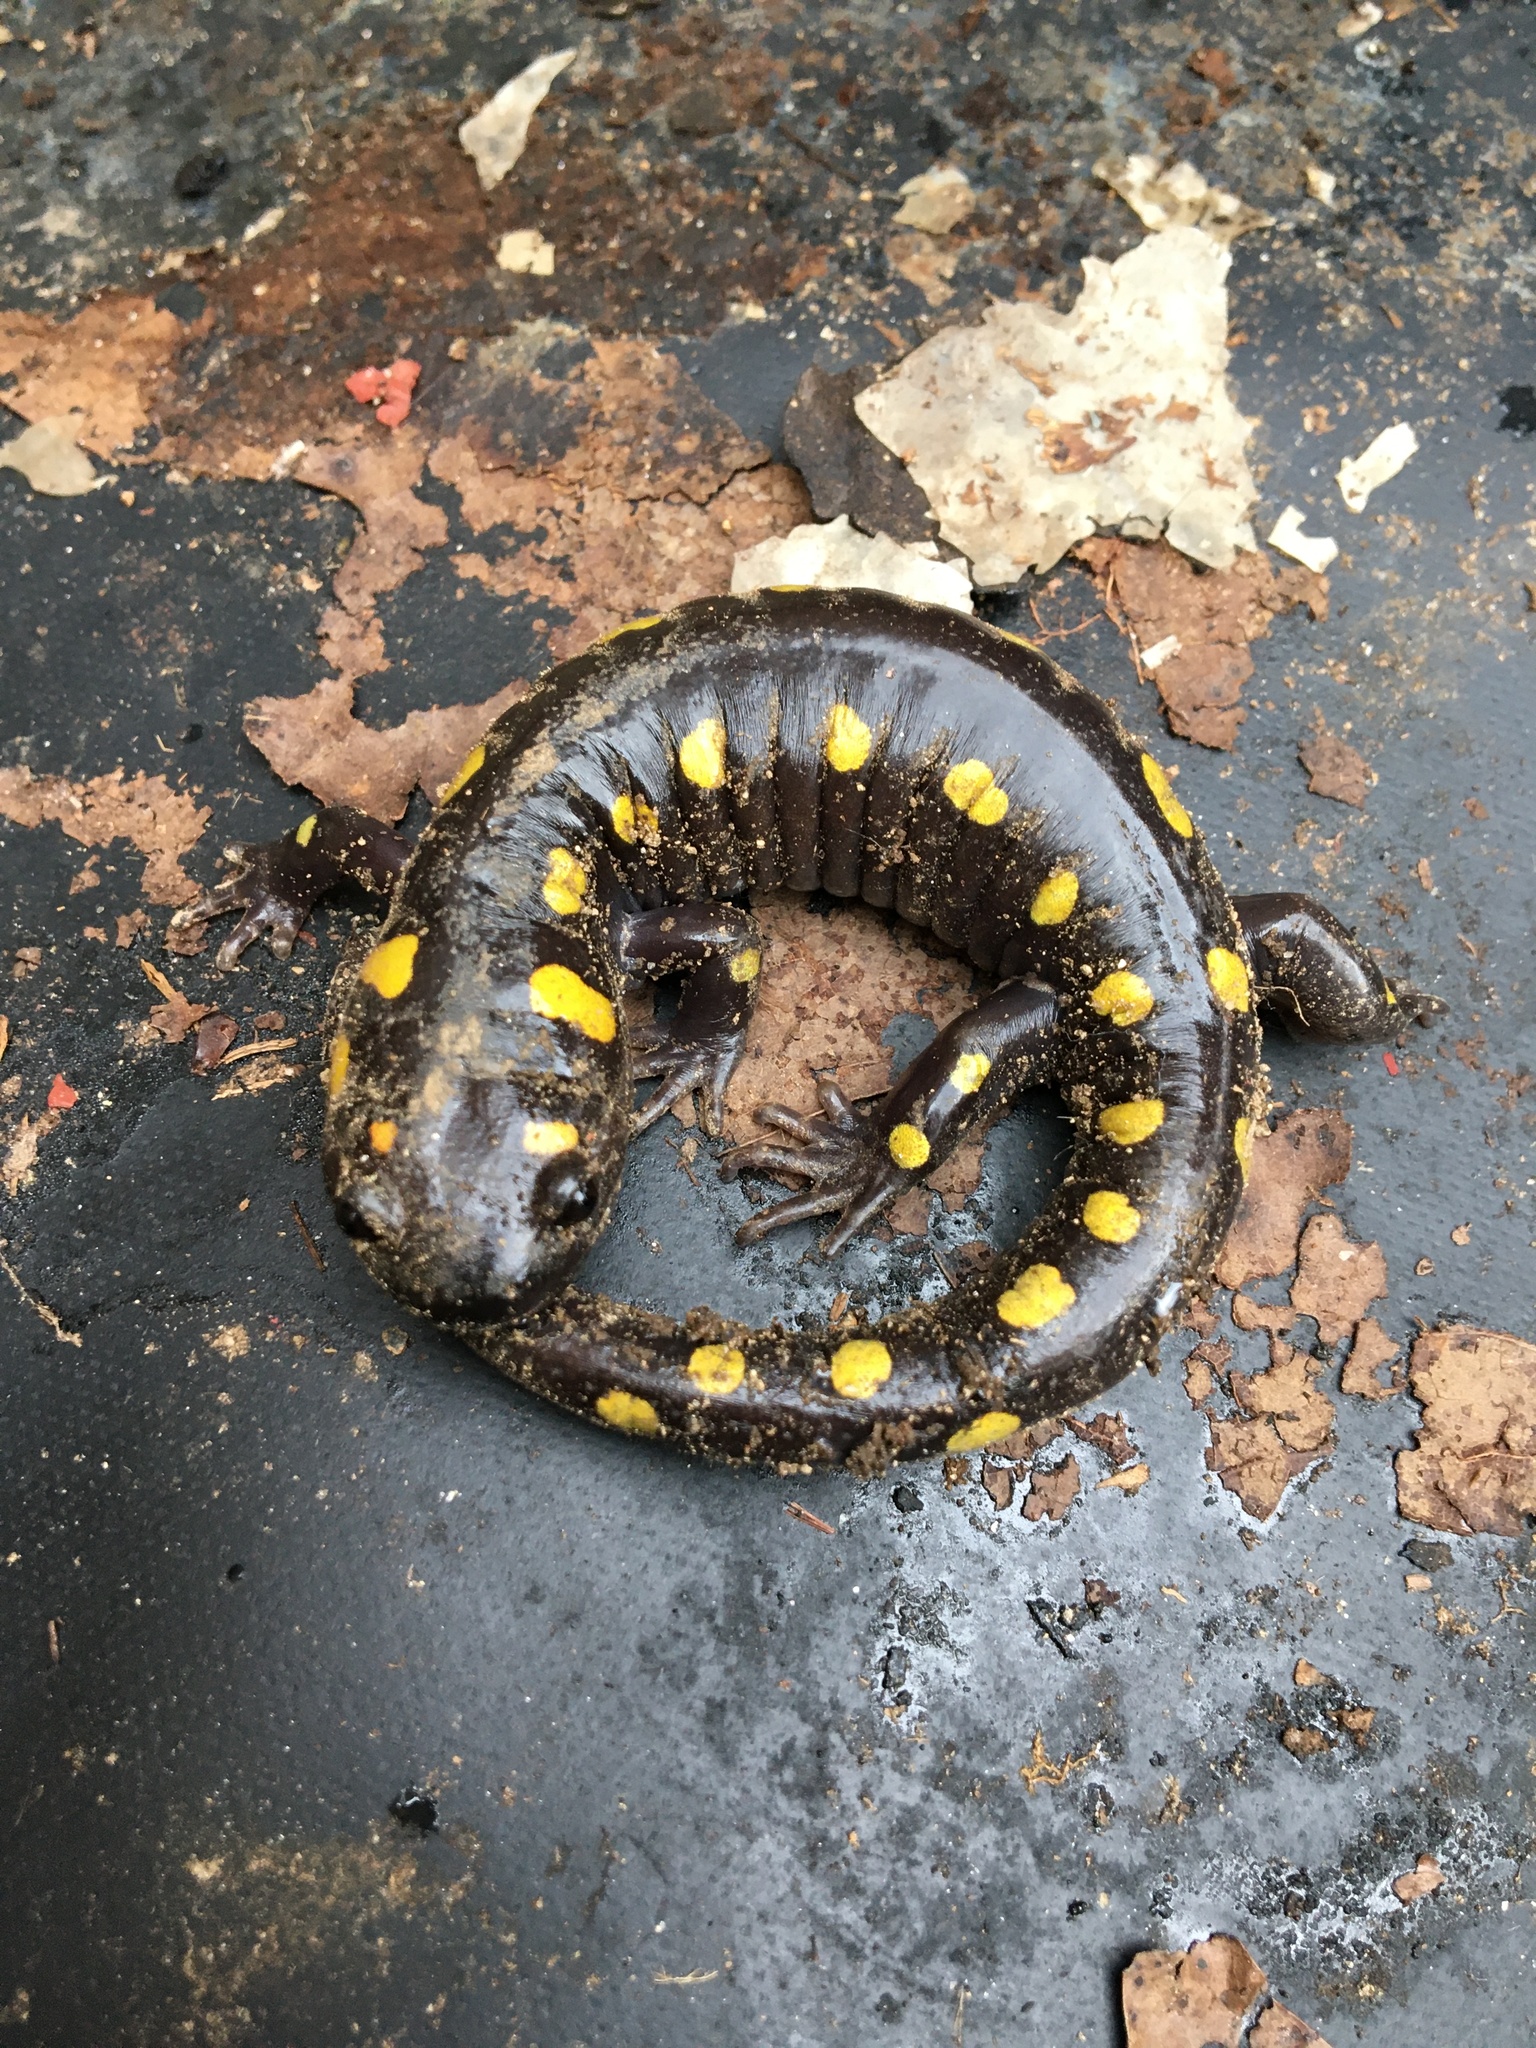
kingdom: Animalia
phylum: Chordata
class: Amphibia
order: Caudata
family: Ambystomatidae
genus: Ambystoma
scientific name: Ambystoma maculatum
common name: Spotted salamander
